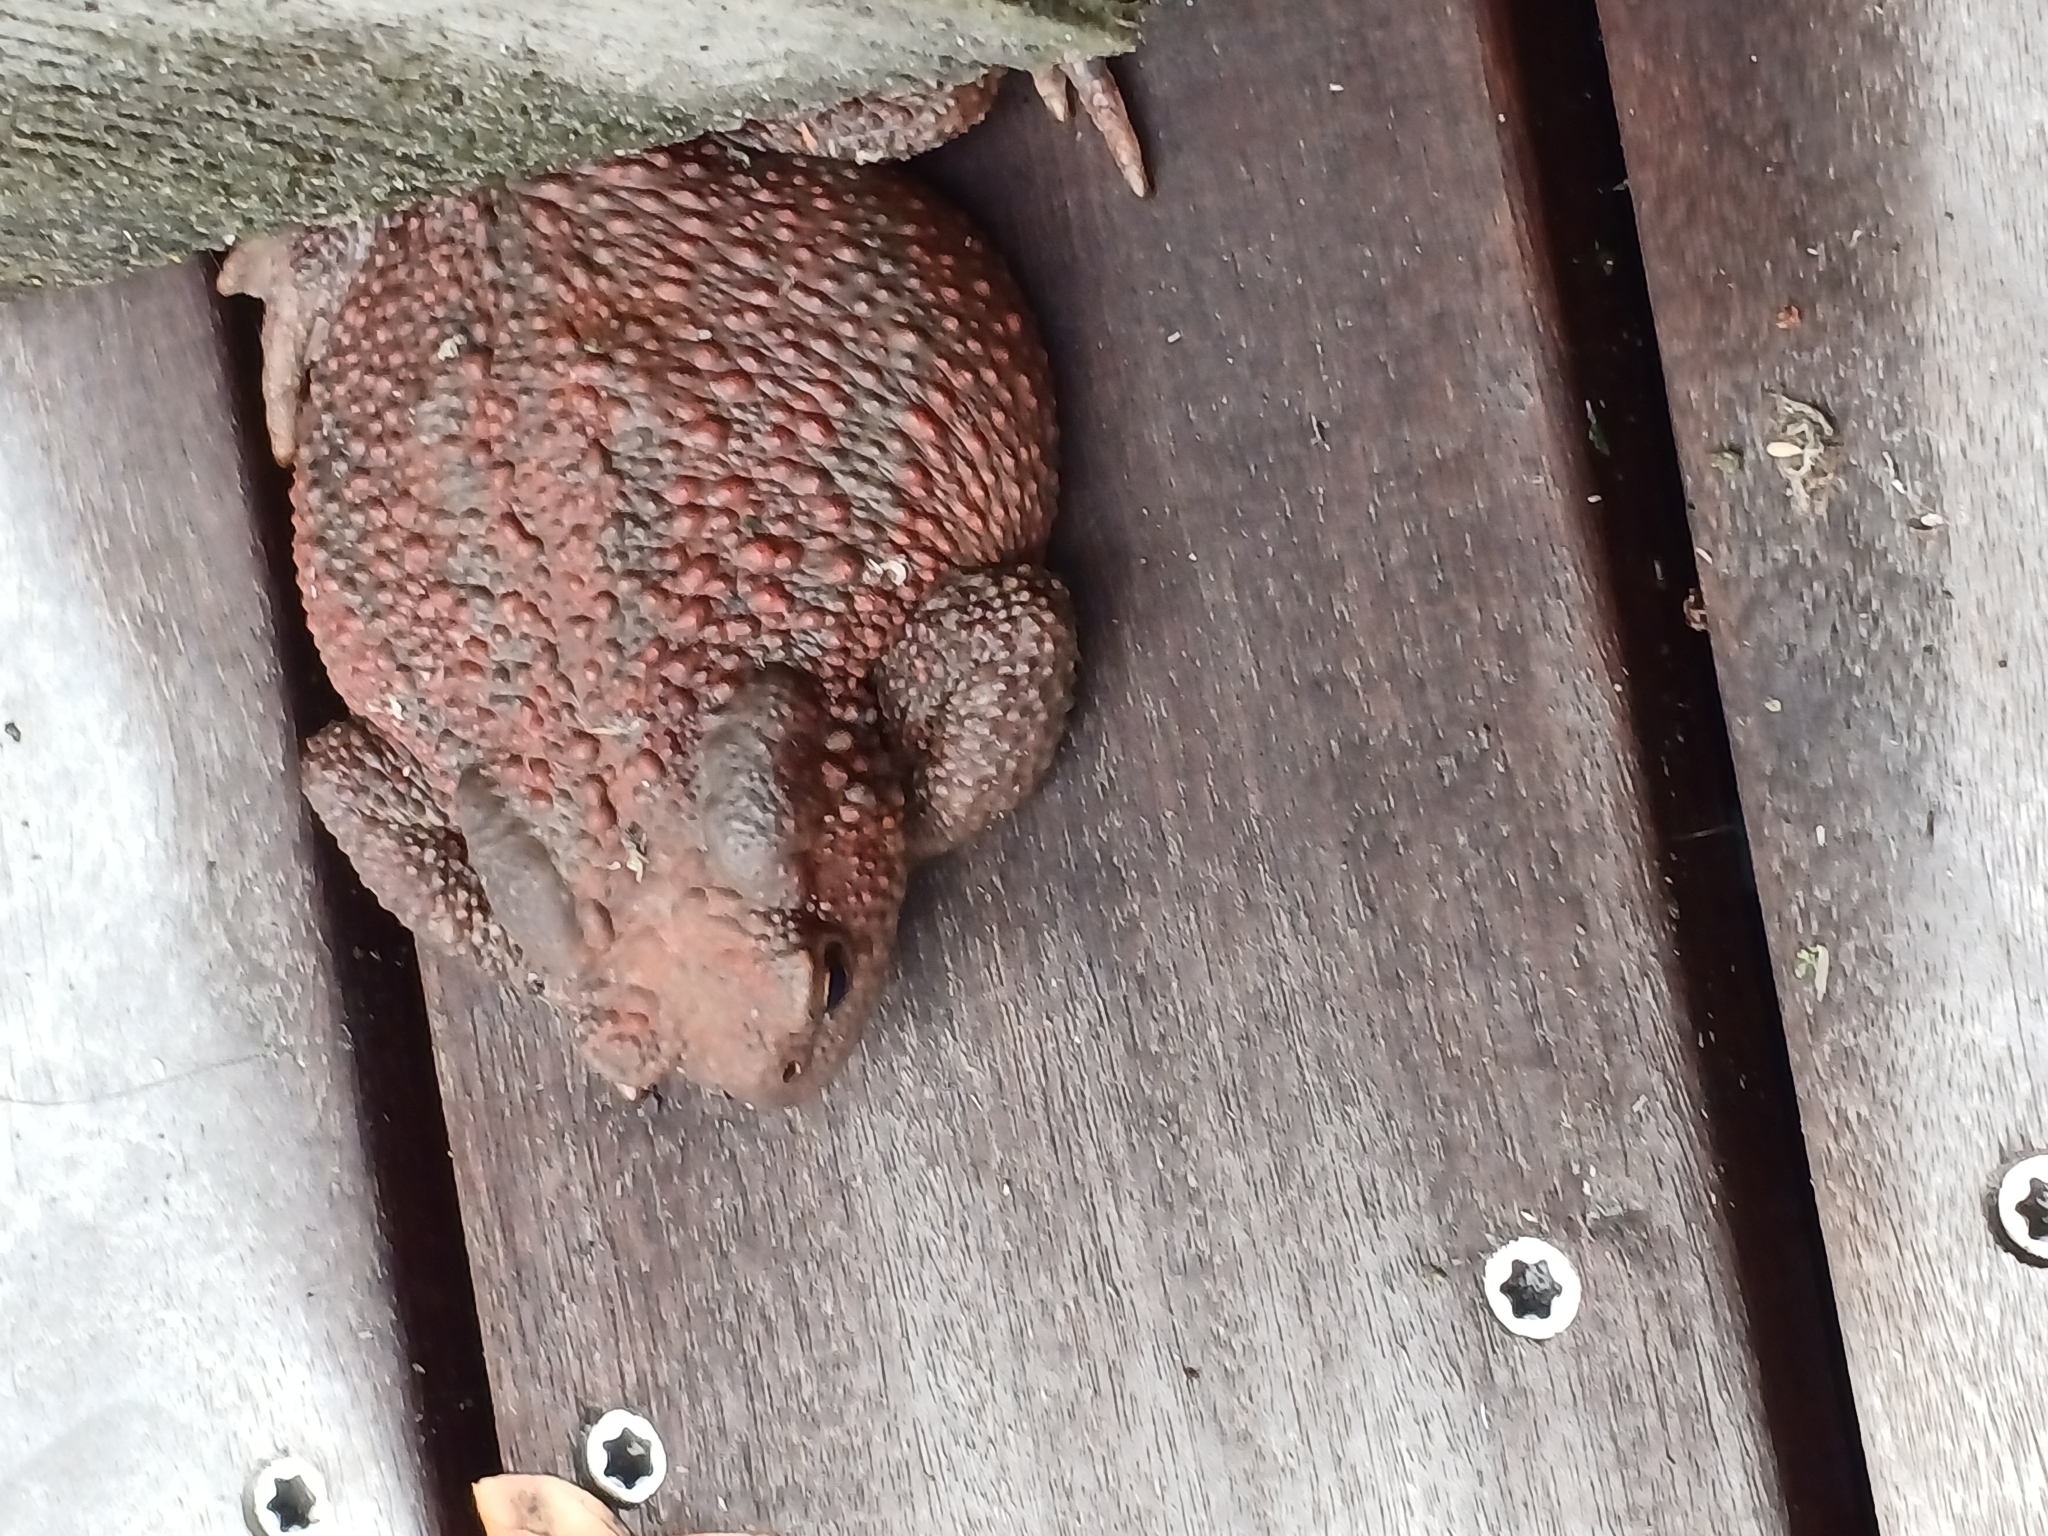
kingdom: Animalia
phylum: Chordata
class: Amphibia
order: Anura
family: Bufonidae
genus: Bufo
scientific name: Bufo bufo
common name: Common toad
